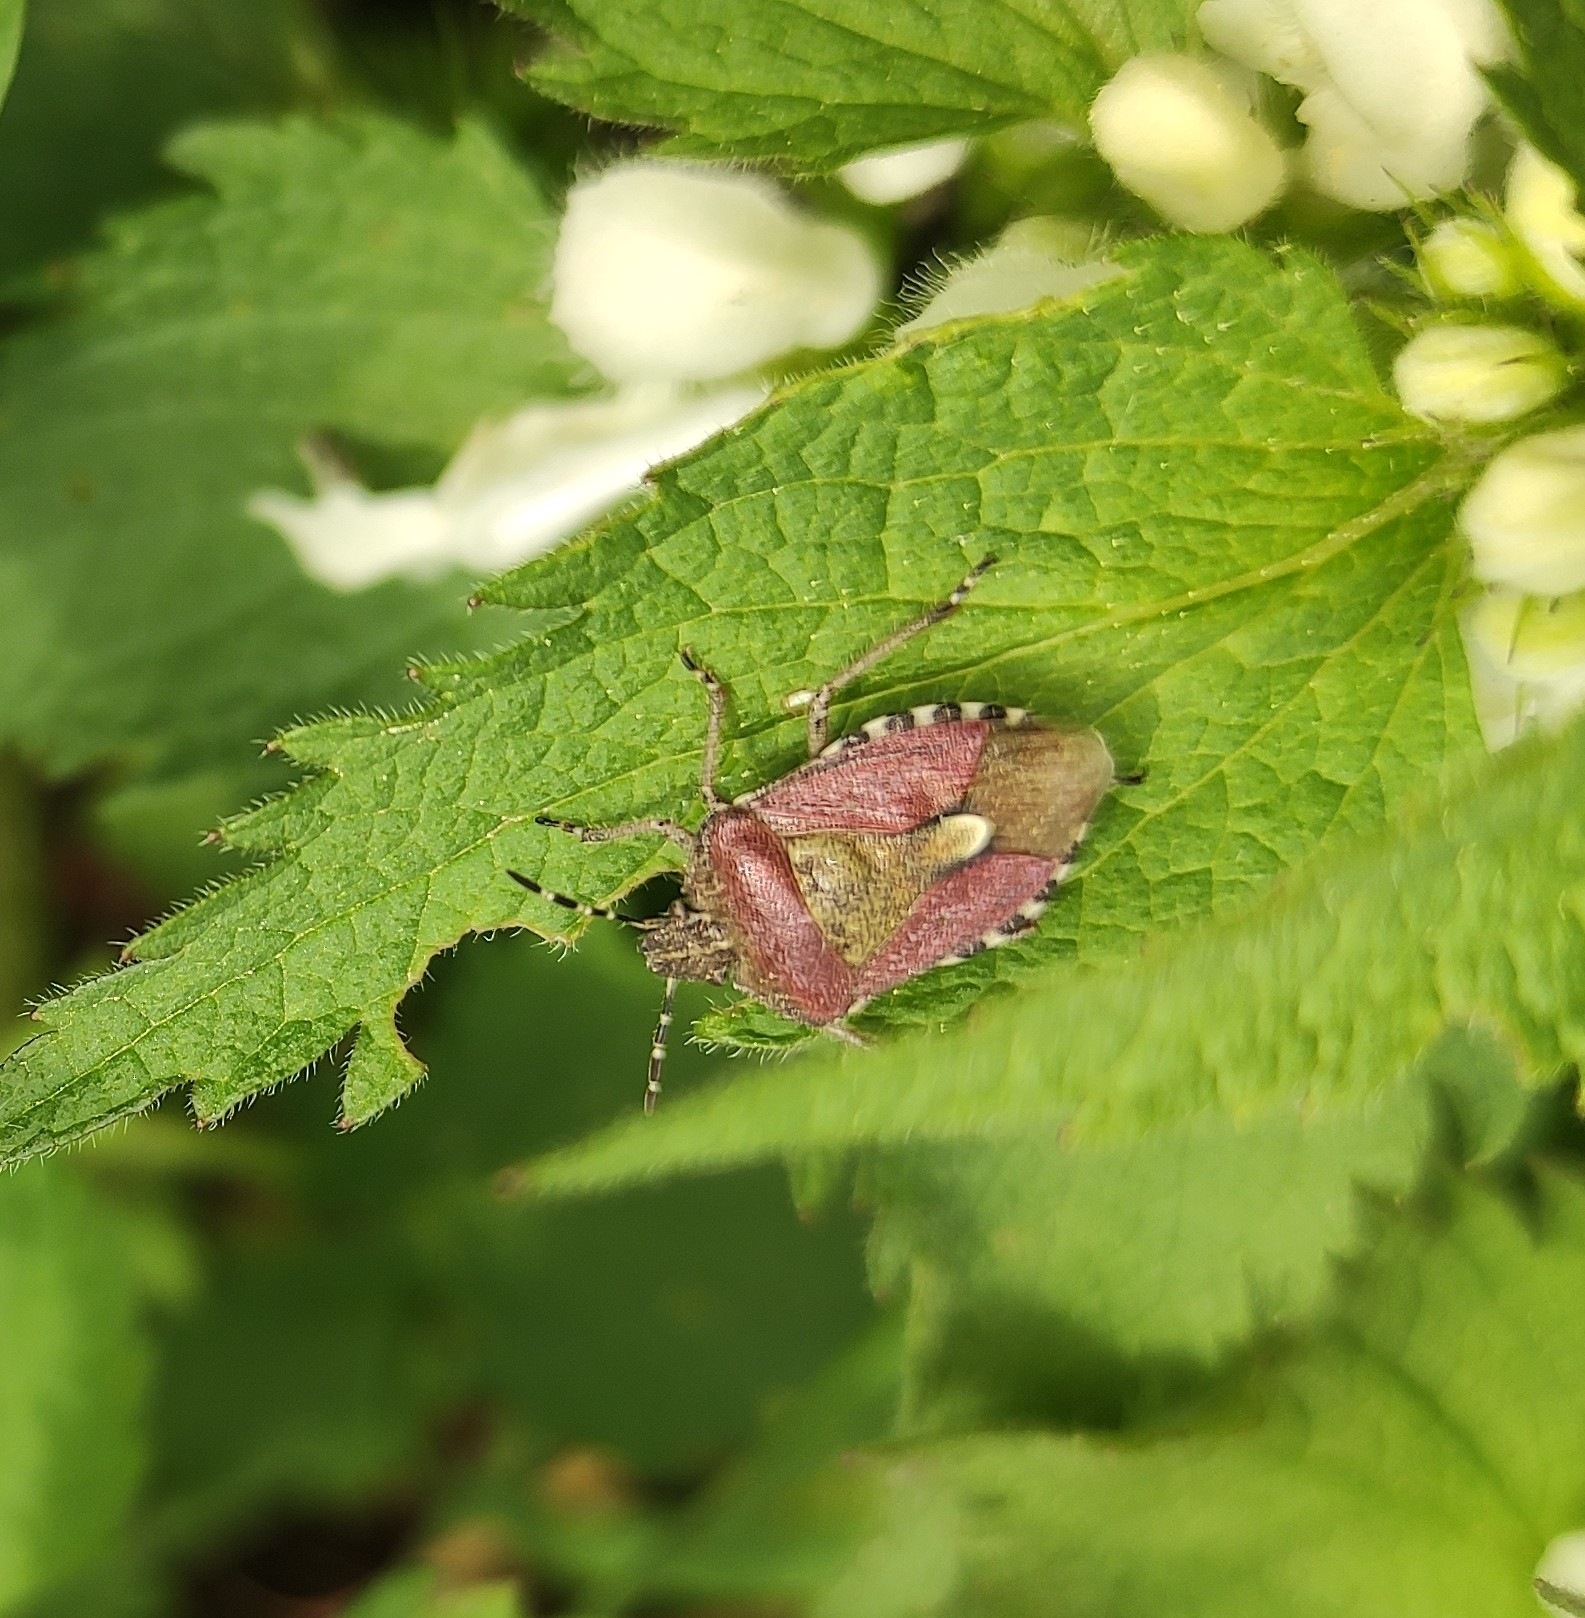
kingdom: Animalia
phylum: Arthropoda
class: Insecta
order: Hemiptera
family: Pentatomidae
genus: Dolycoris
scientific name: Dolycoris baccarum
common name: Sloe bug
